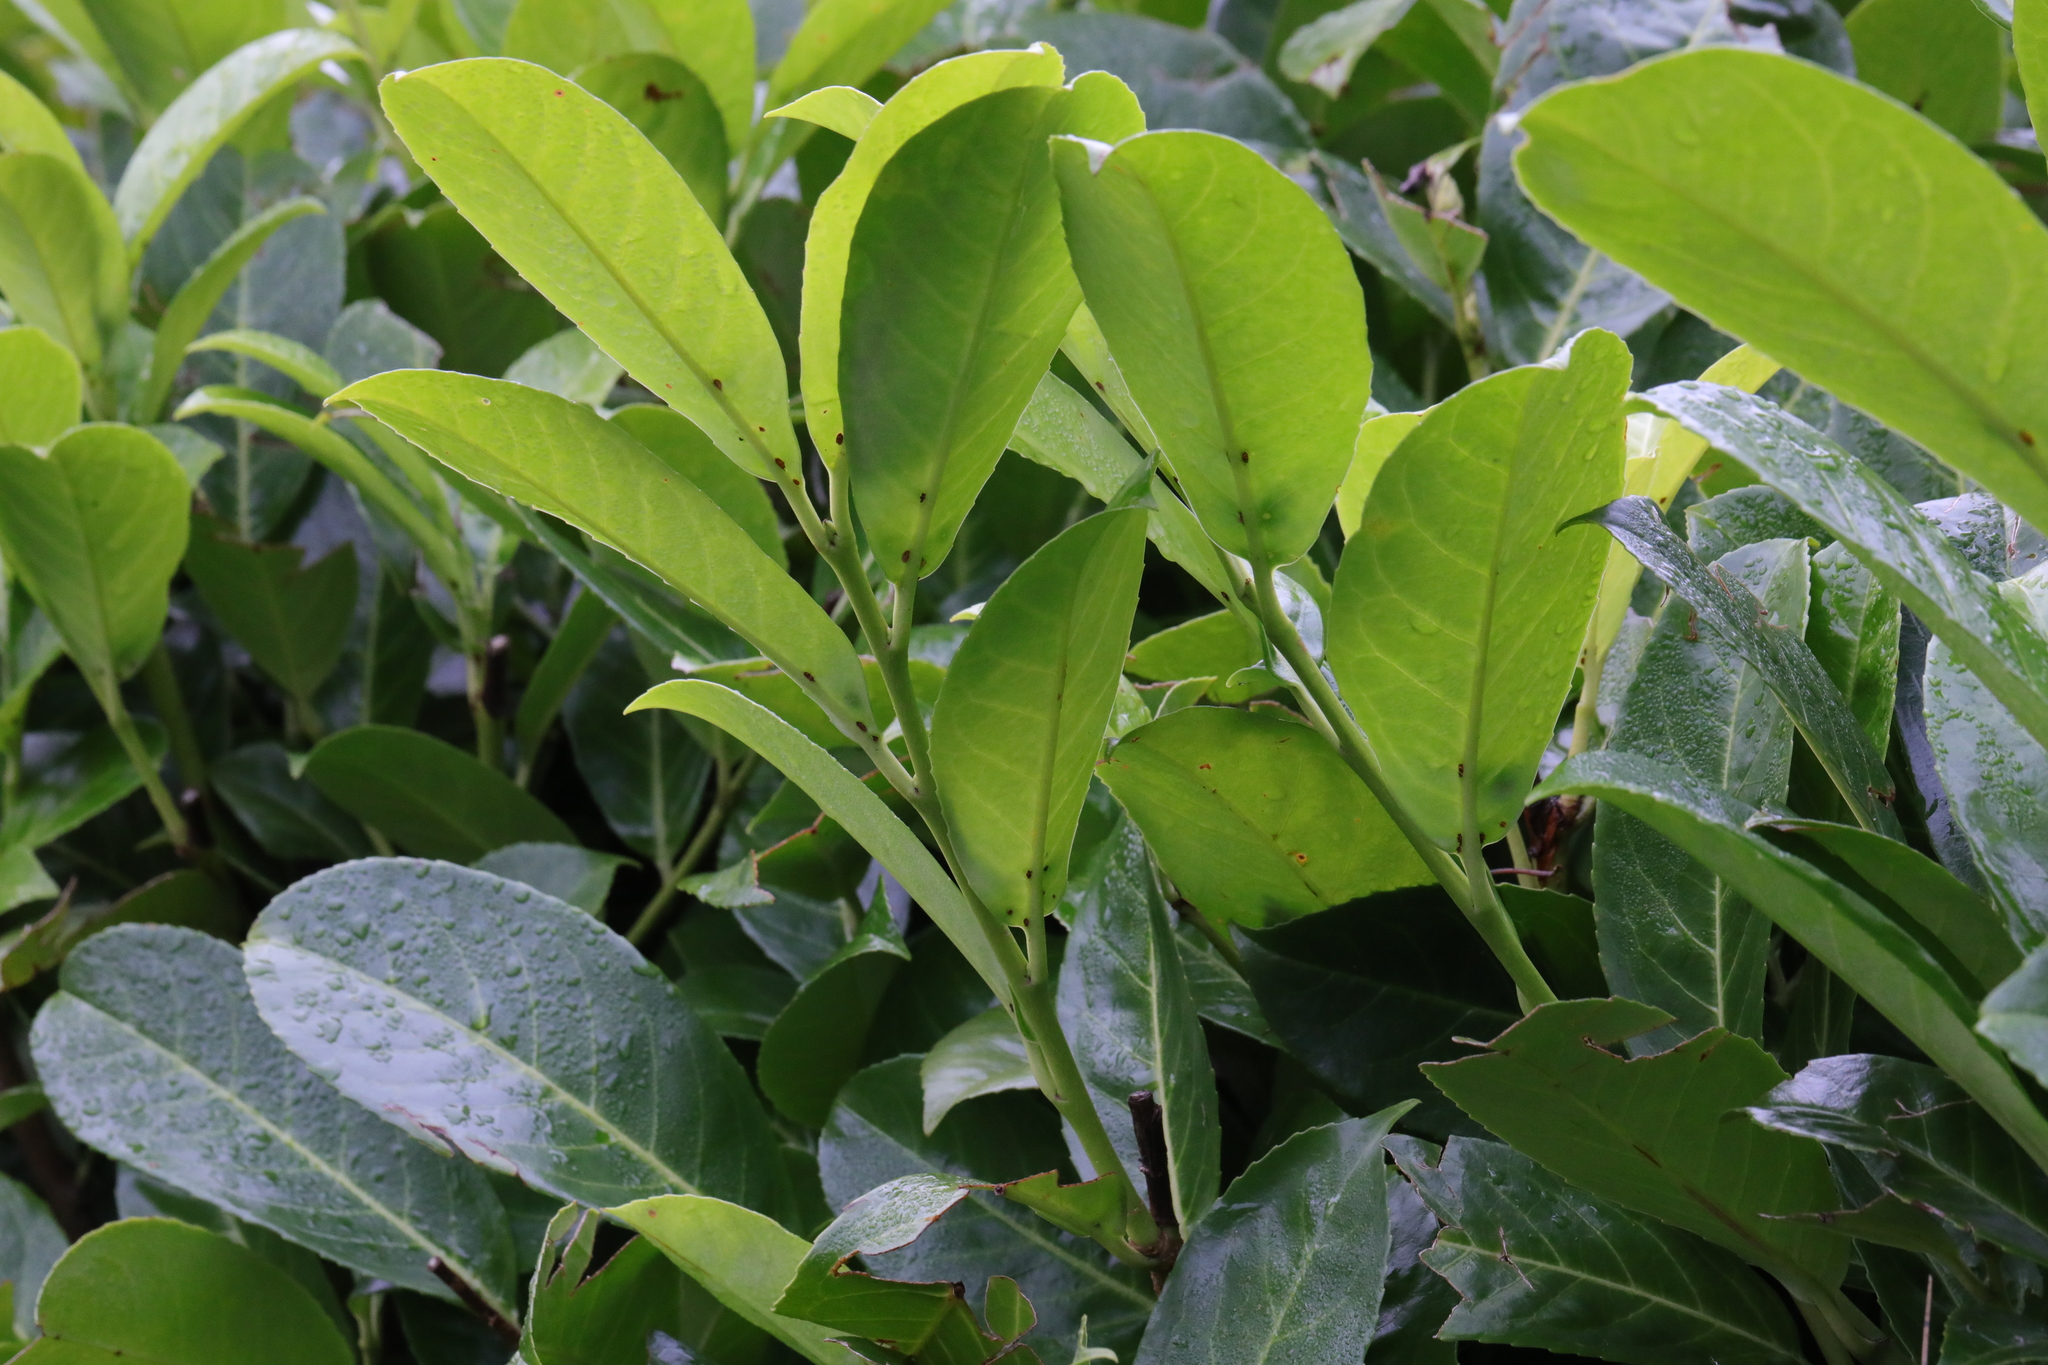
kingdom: Plantae
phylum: Tracheophyta
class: Magnoliopsida
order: Rosales
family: Rosaceae
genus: Prunus
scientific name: Prunus laurocerasus
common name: Cherry laurel
